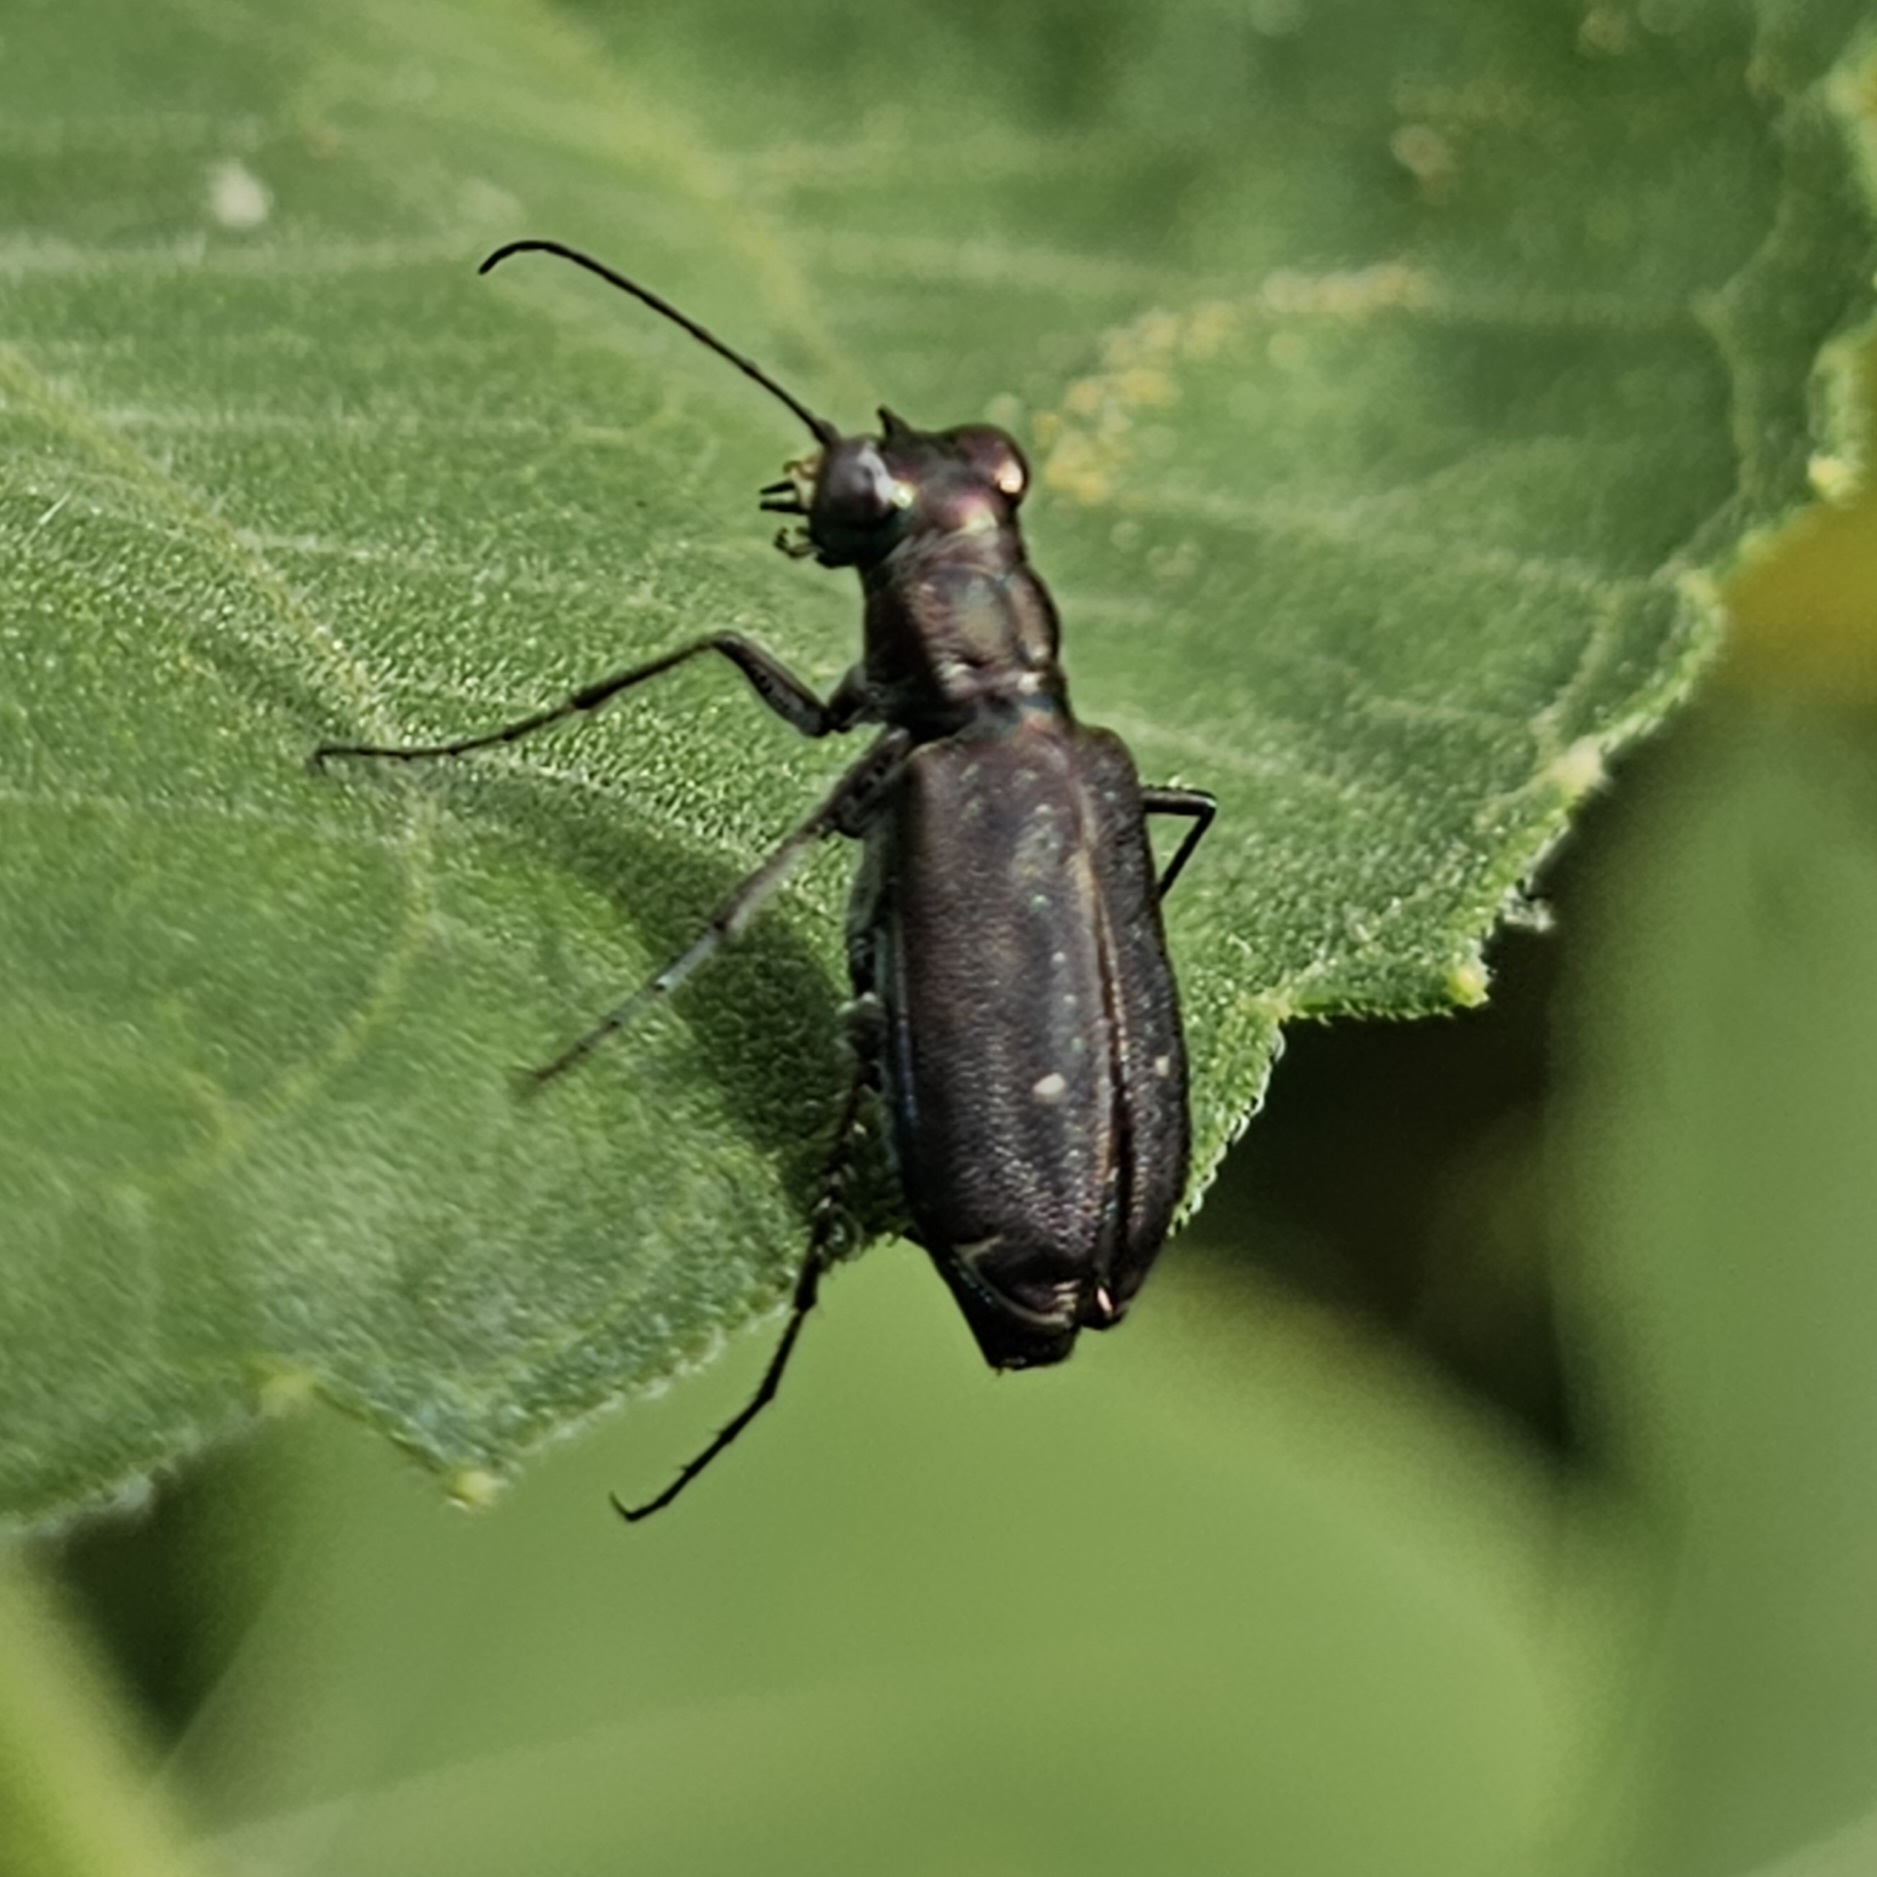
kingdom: Animalia
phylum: Arthropoda
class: Insecta
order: Coleoptera
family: Carabidae
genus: Cicindela
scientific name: Cicindela punctulata
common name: Punctured tiger beetle
